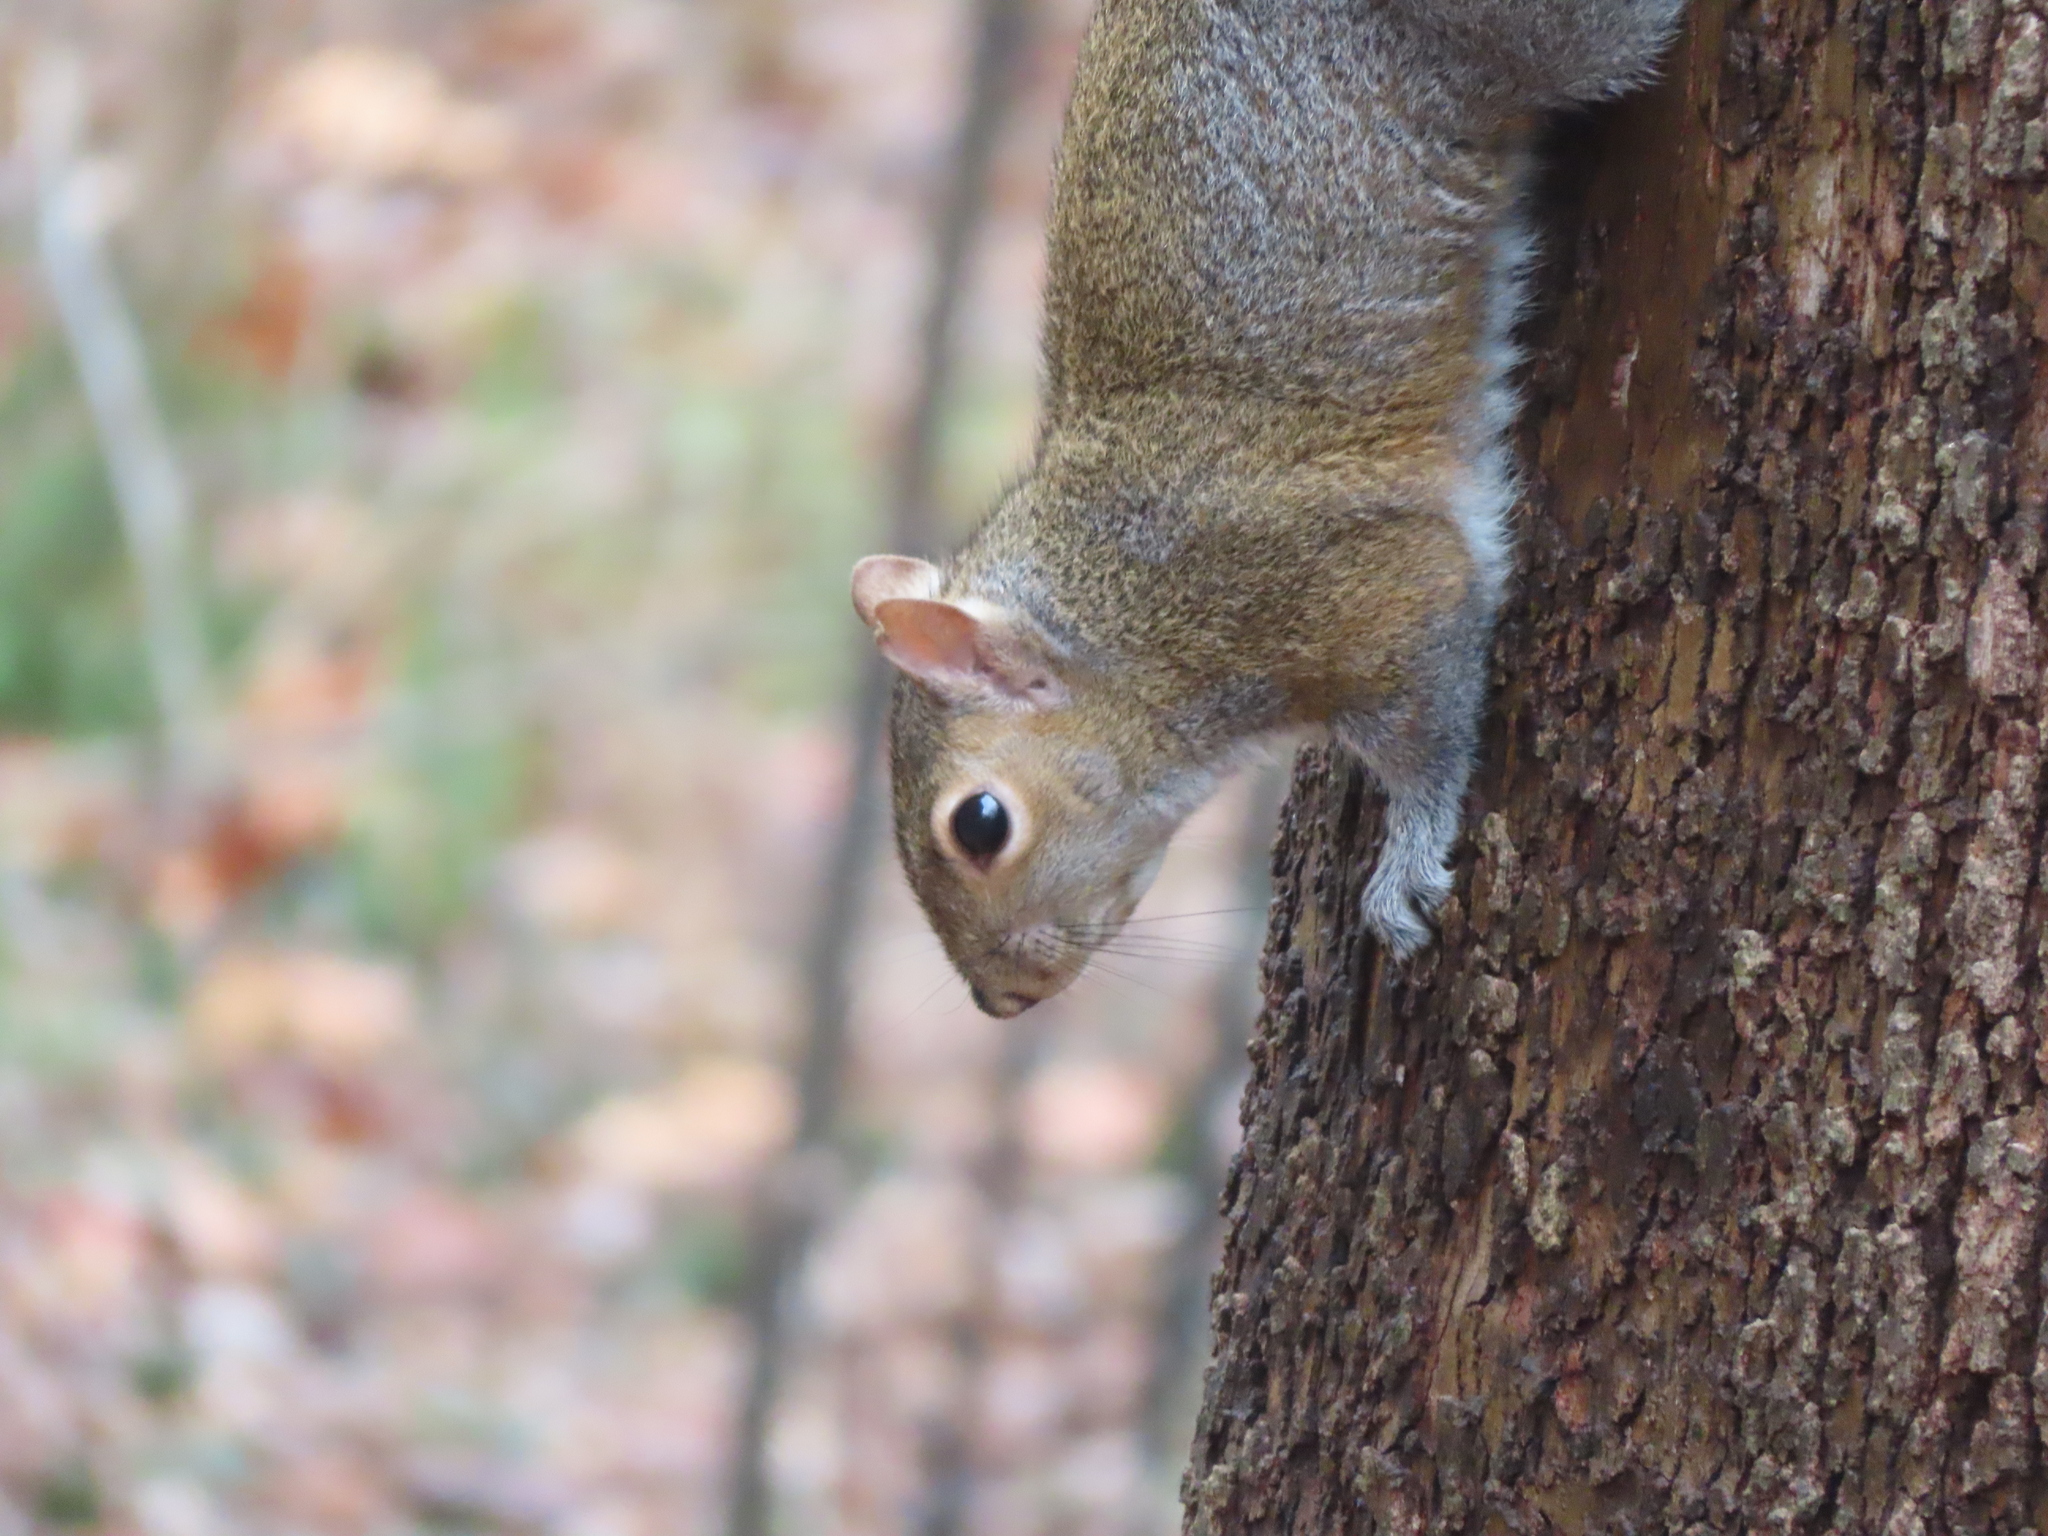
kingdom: Animalia
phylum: Chordata
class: Mammalia
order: Rodentia
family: Sciuridae
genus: Sciurus
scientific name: Sciurus carolinensis
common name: Eastern gray squirrel
